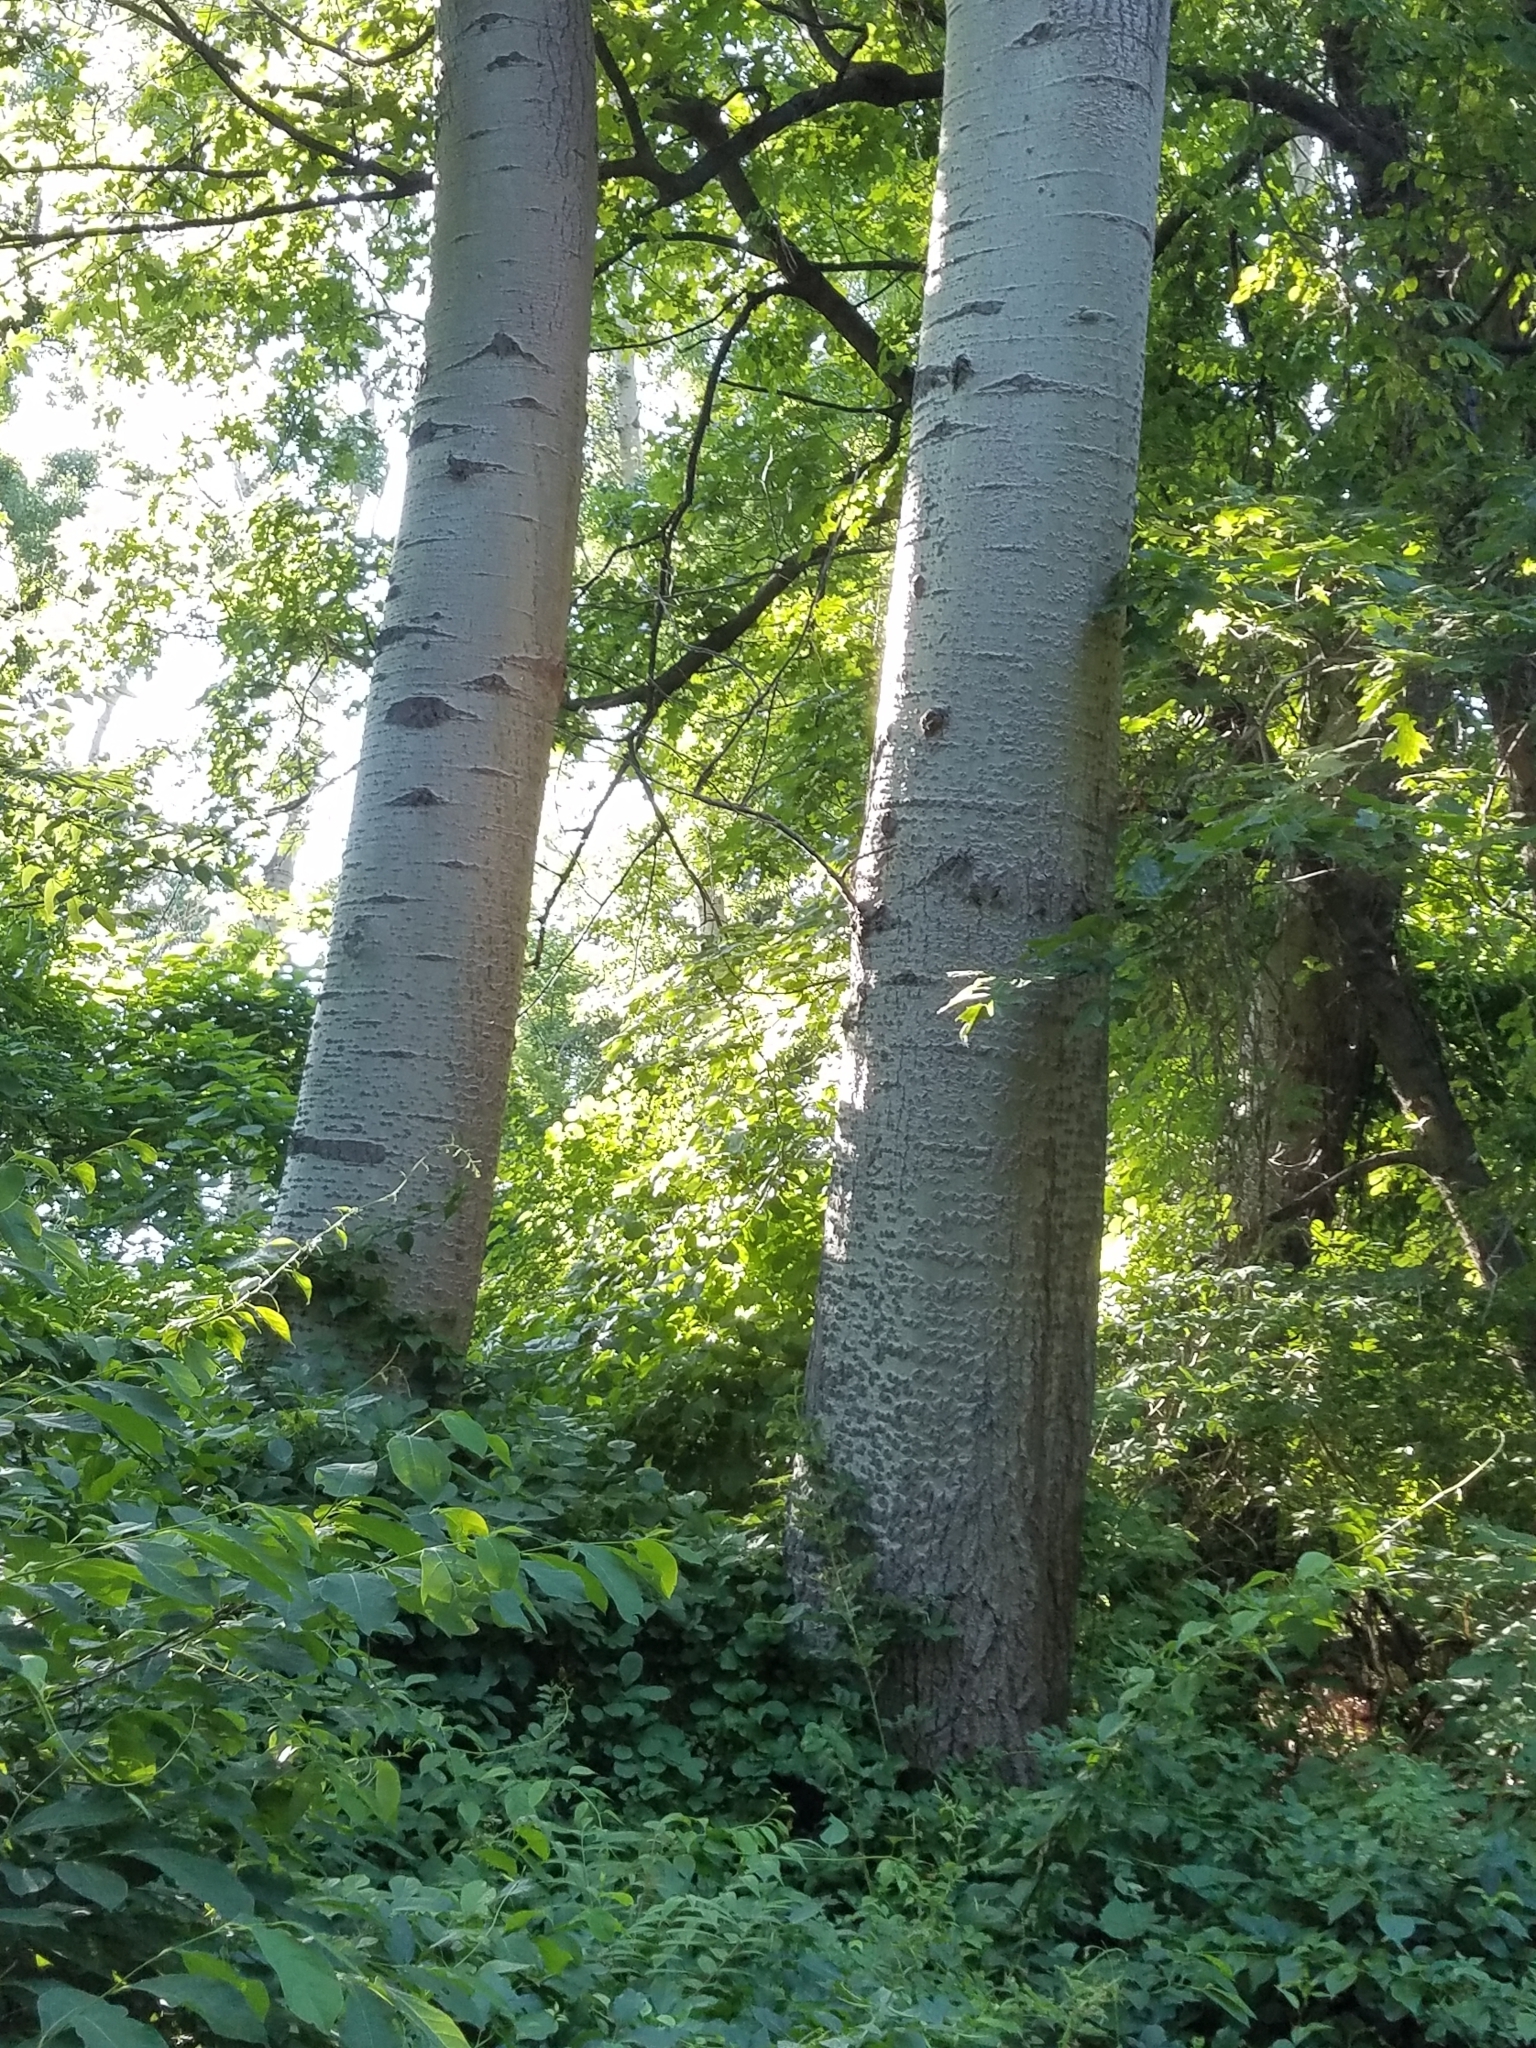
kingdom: Plantae
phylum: Tracheophyta
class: Magnoliopsida
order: Malpighiales
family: Salicaceae
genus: Populus
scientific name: Populus tremuloides
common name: Quaking aspen
